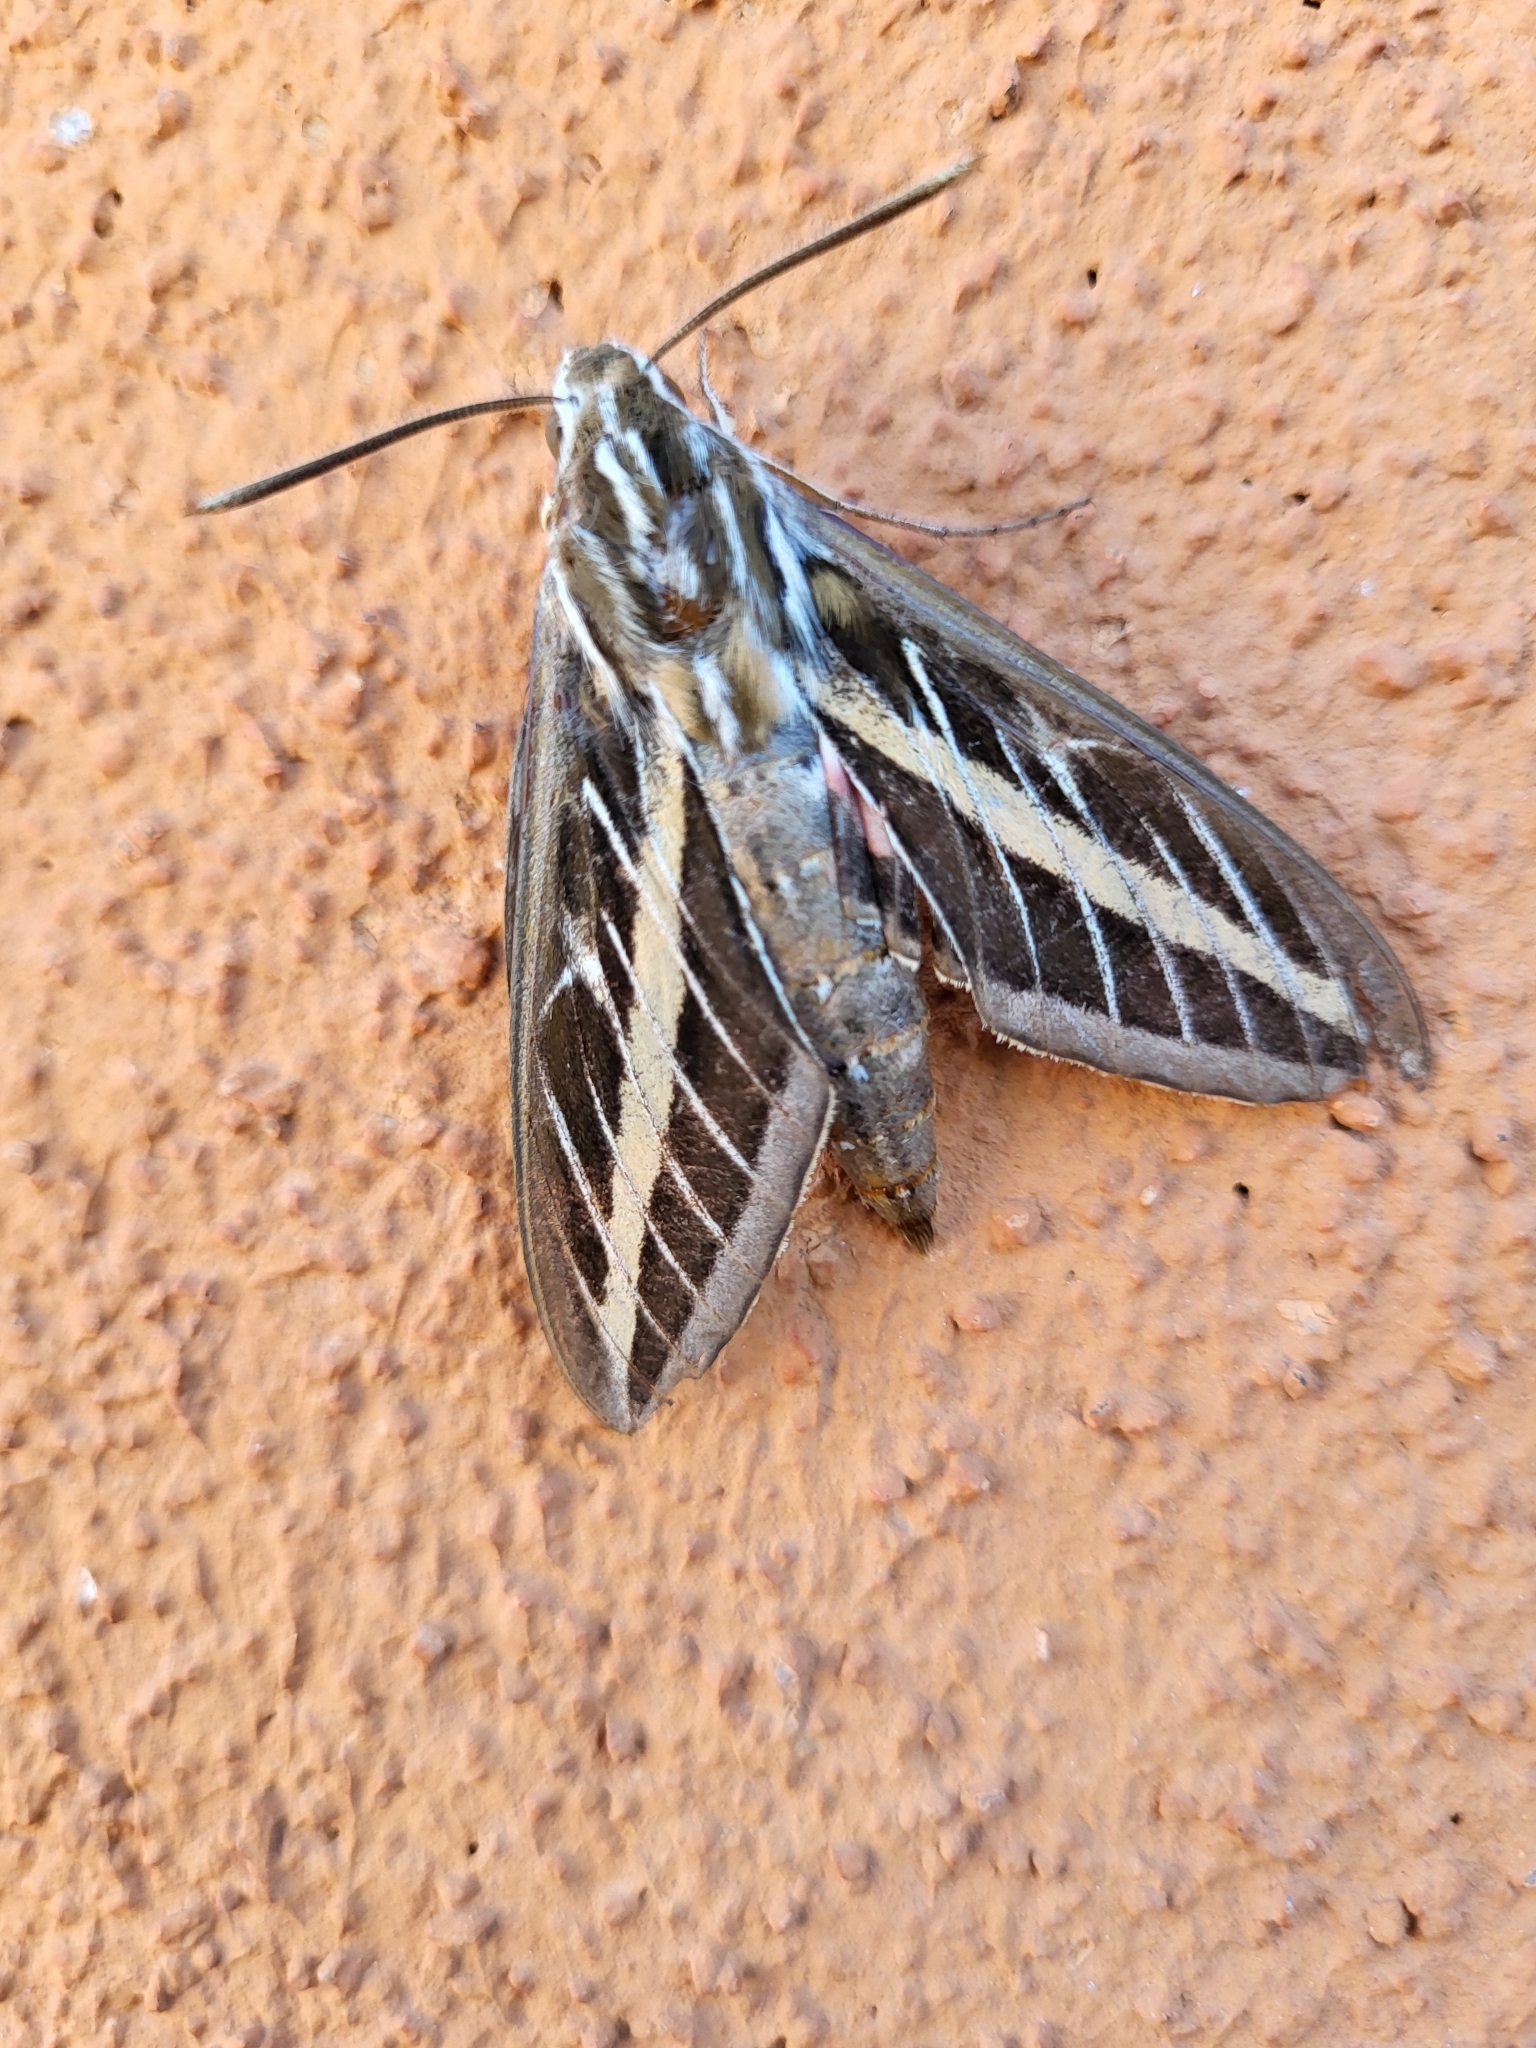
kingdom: Animalia
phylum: Arthropoda
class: Insecta
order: Lepidoptera
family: Sphingidae
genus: Hyles
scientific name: Hyles lineata
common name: White-lined sphinx
